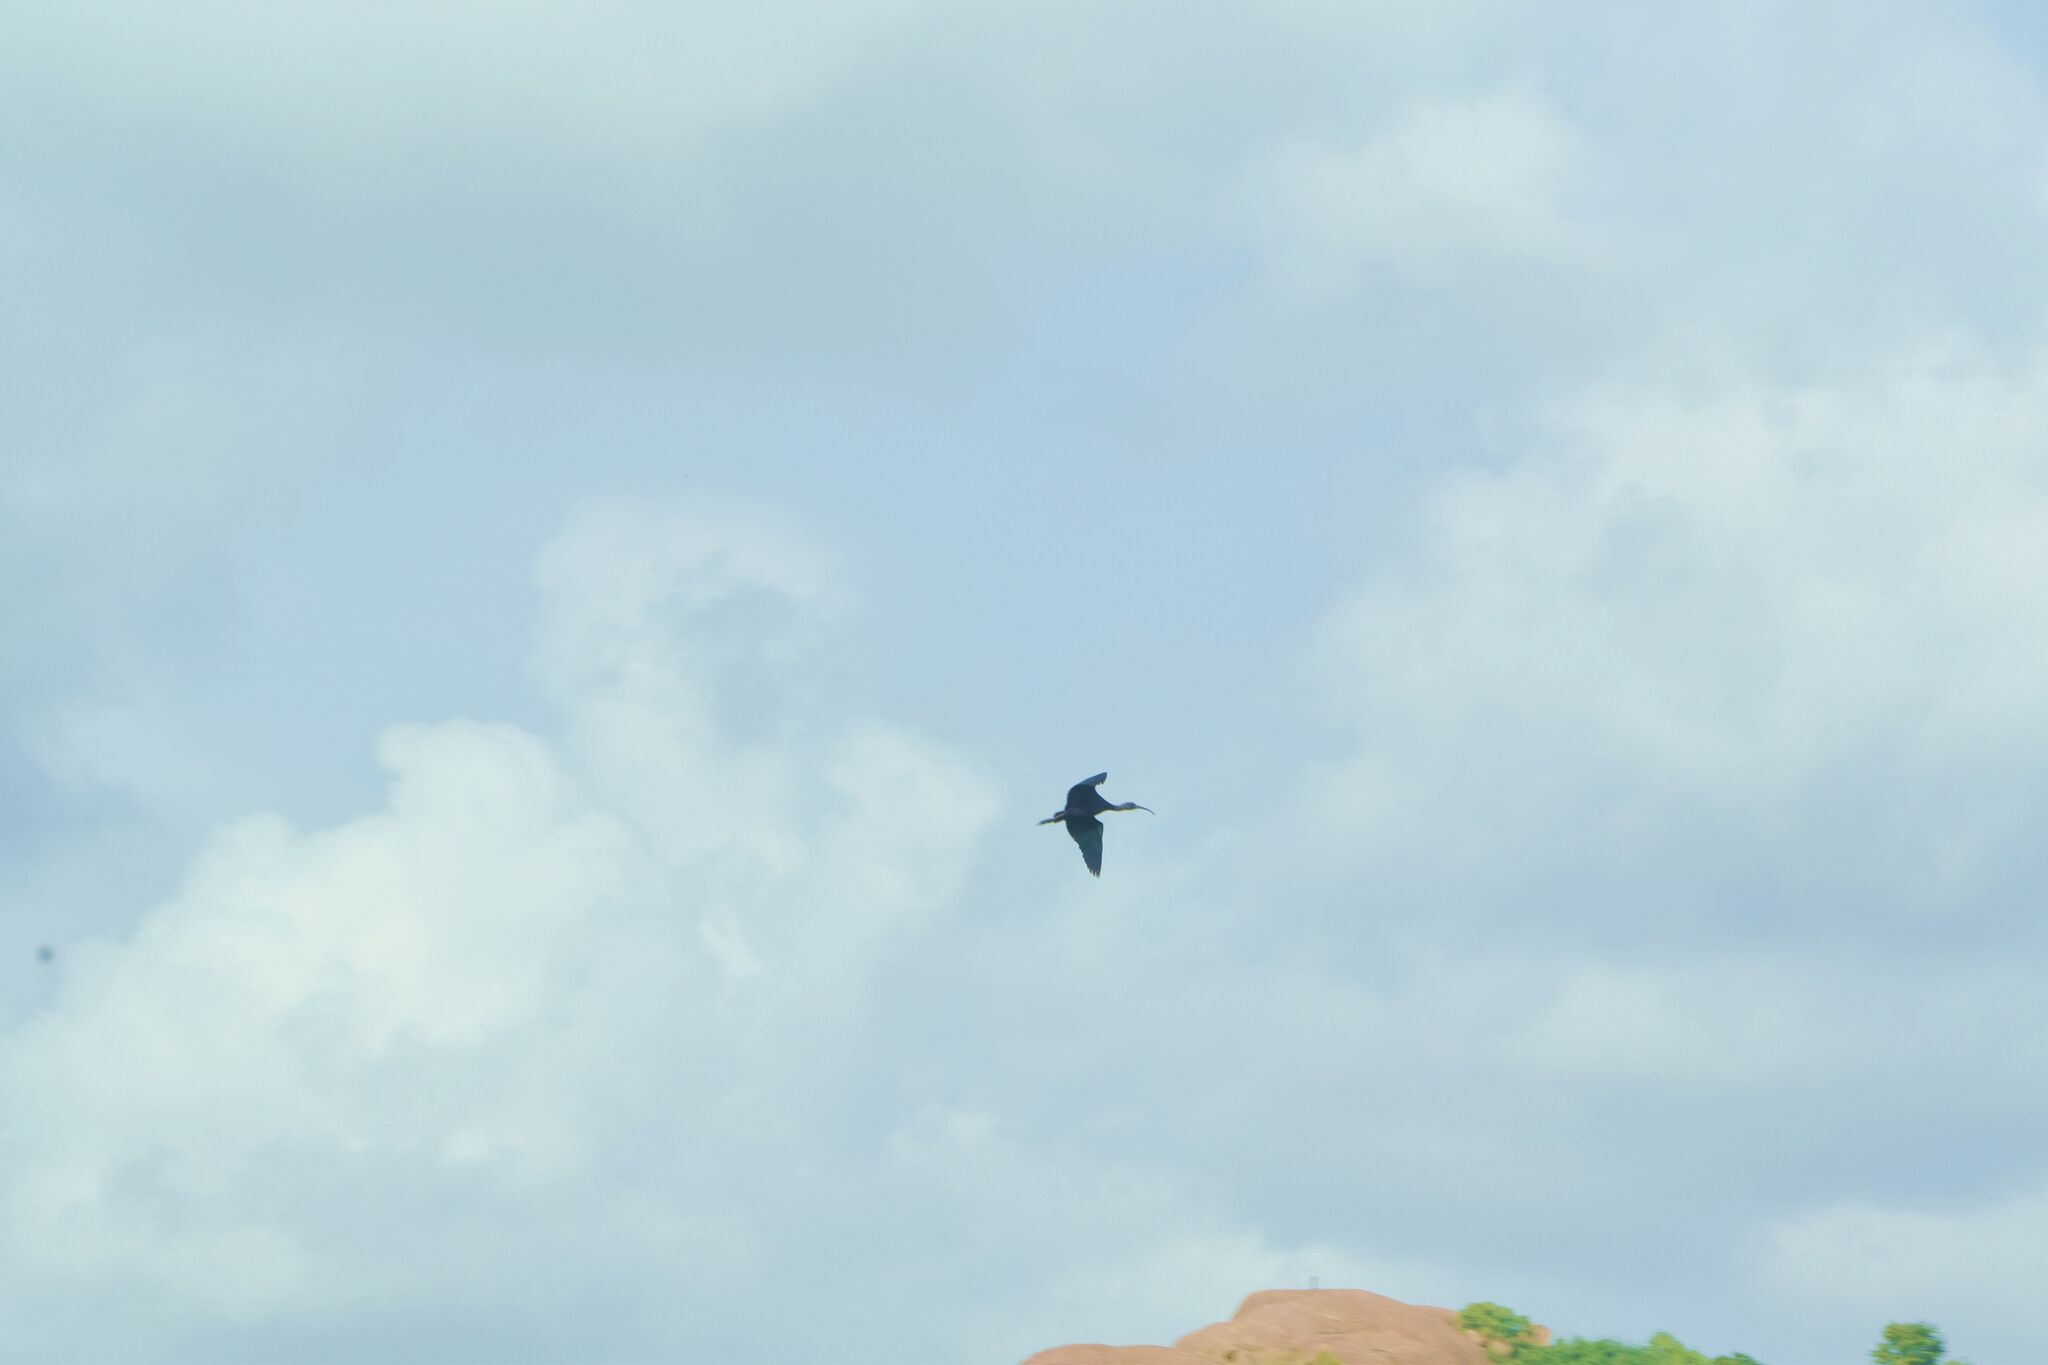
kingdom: Animalia
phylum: Chordata
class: Aves
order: Pelecaniformes
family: Threskiornithidae
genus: Plegadis
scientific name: Plegadis falcinellus
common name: Glossy ibis
